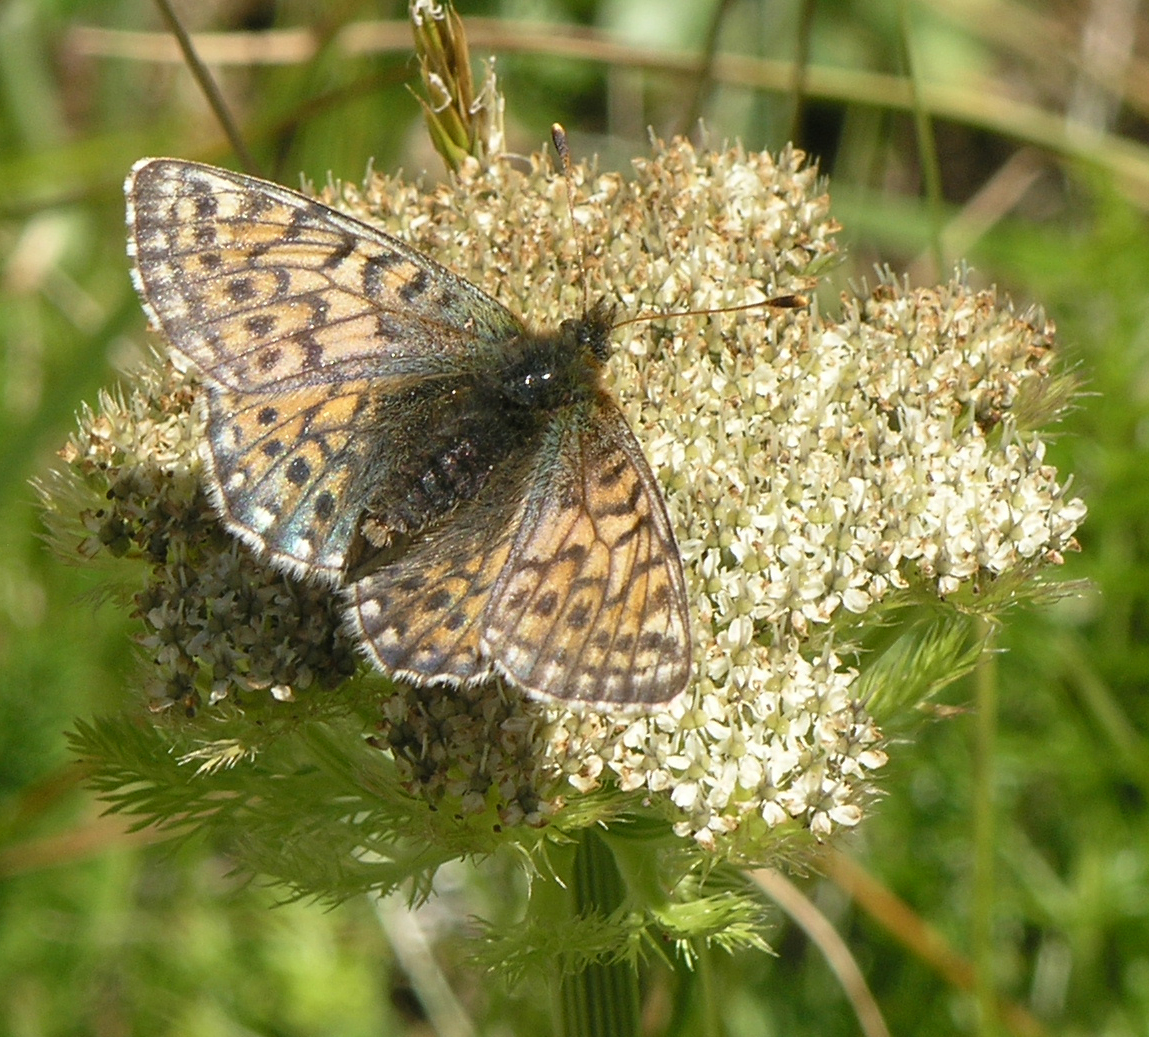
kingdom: Animalia
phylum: Arthropoda
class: Insecta
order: Lepidoptera
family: Nymphalidae
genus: Boloria
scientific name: Boloria napaea
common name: Mountain fritillary
